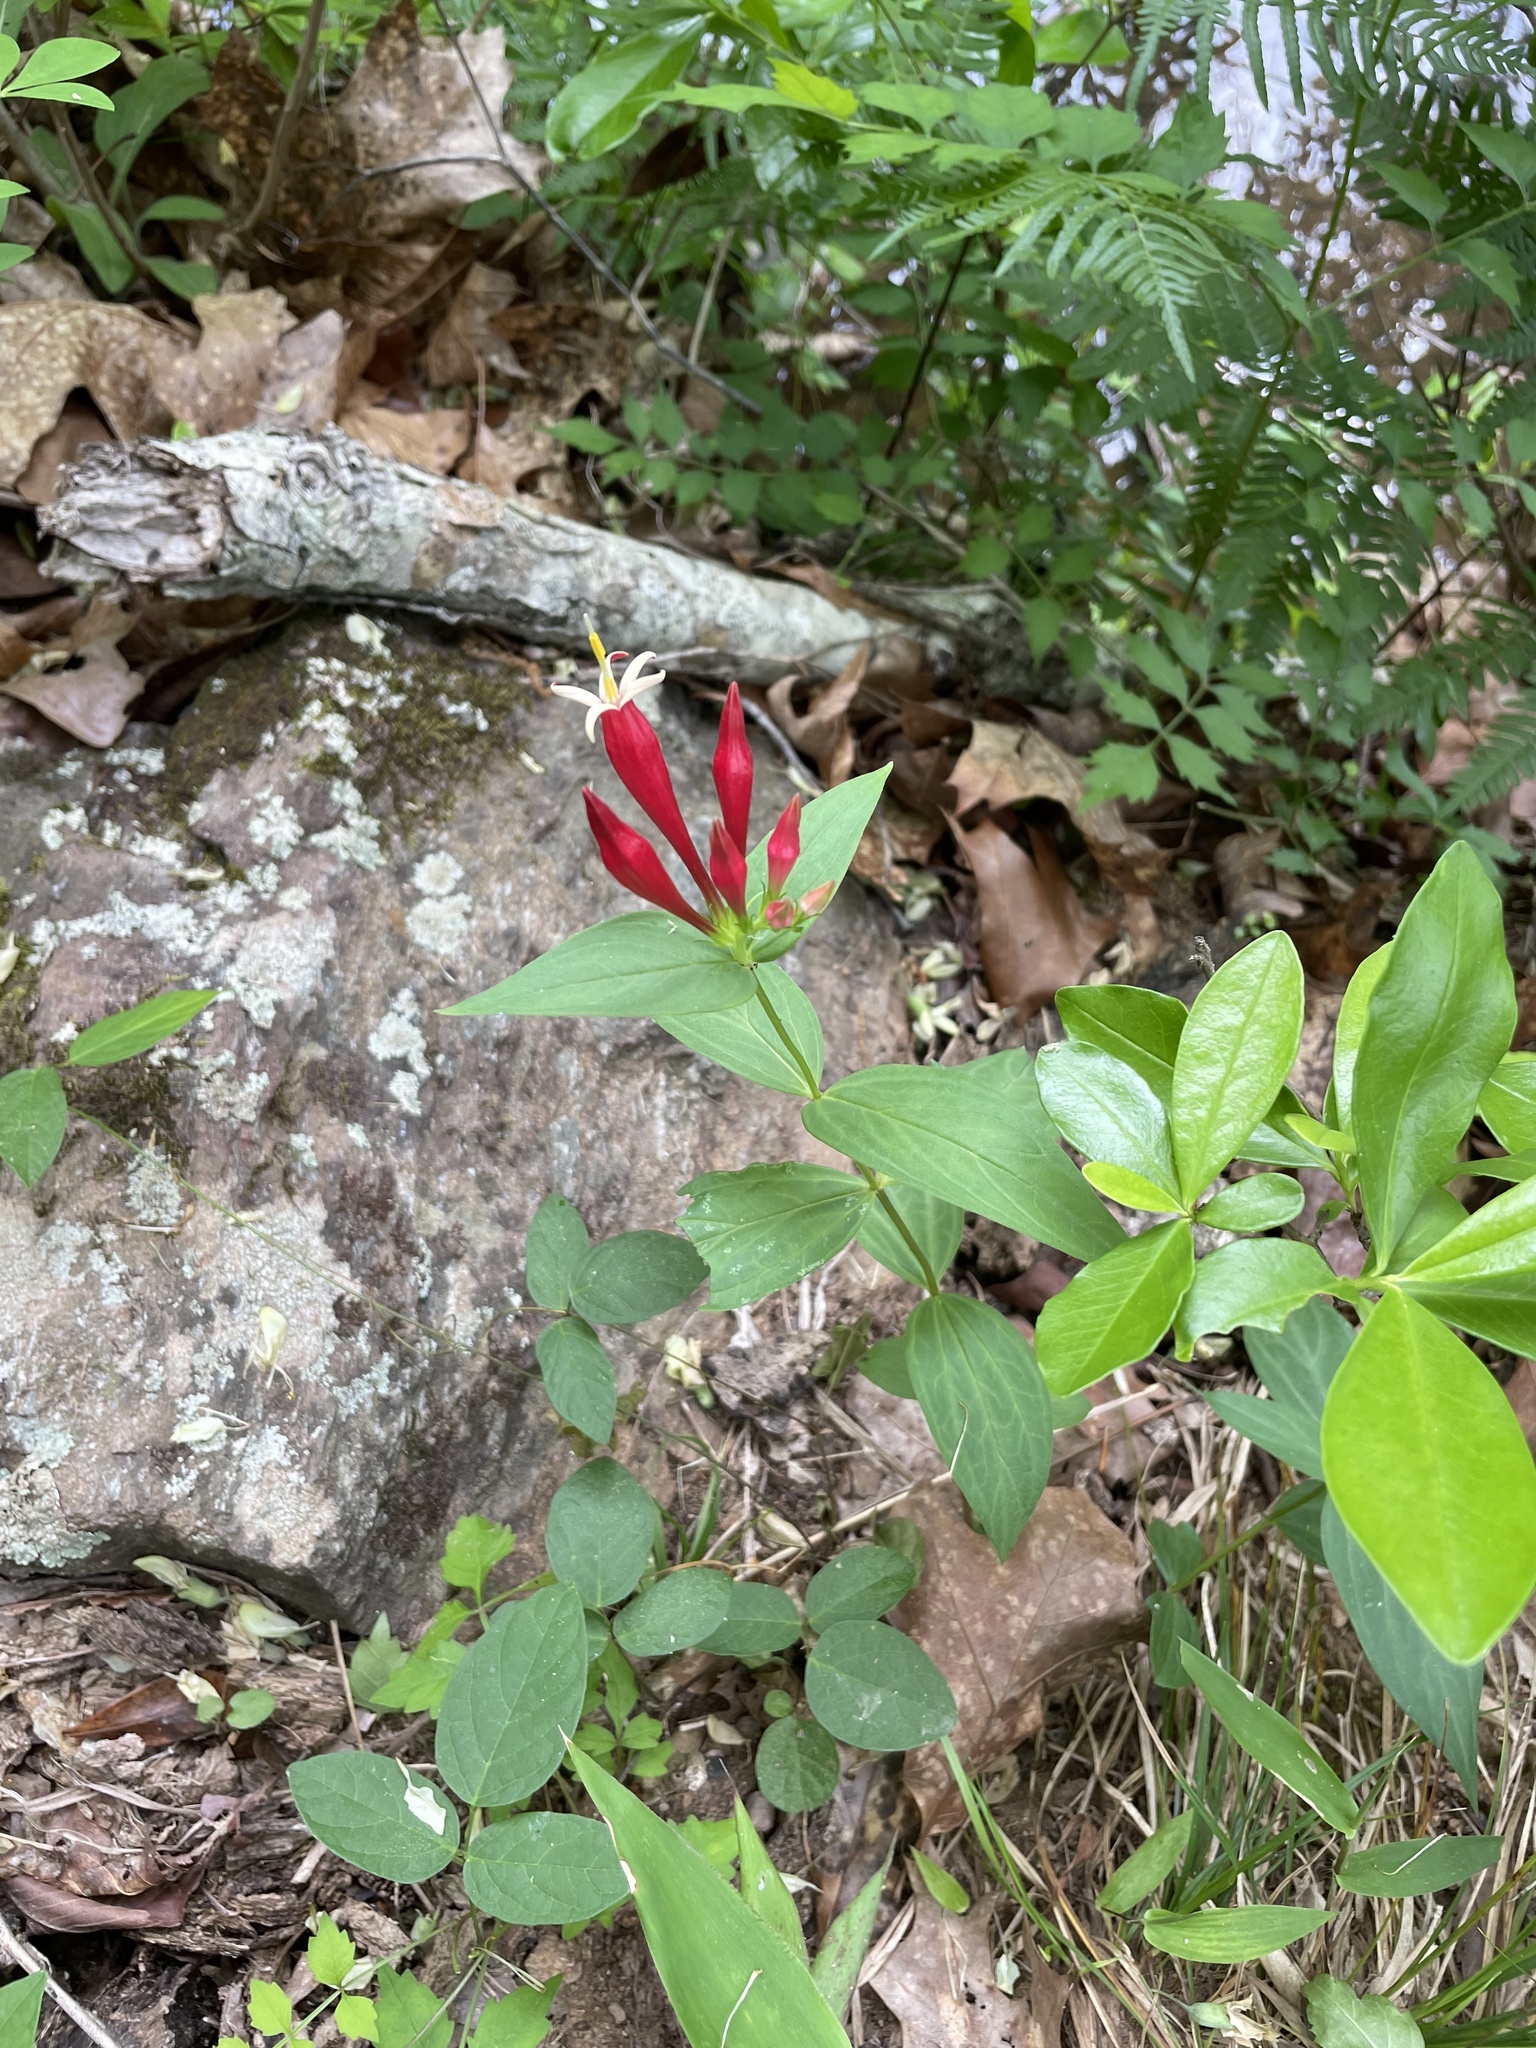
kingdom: Plantae
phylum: Tracheophyta
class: Magnoliopsida
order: Gentianales
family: Loganiaceae
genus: Spigelia
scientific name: Spigelia marilandica
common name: Indian-pink
